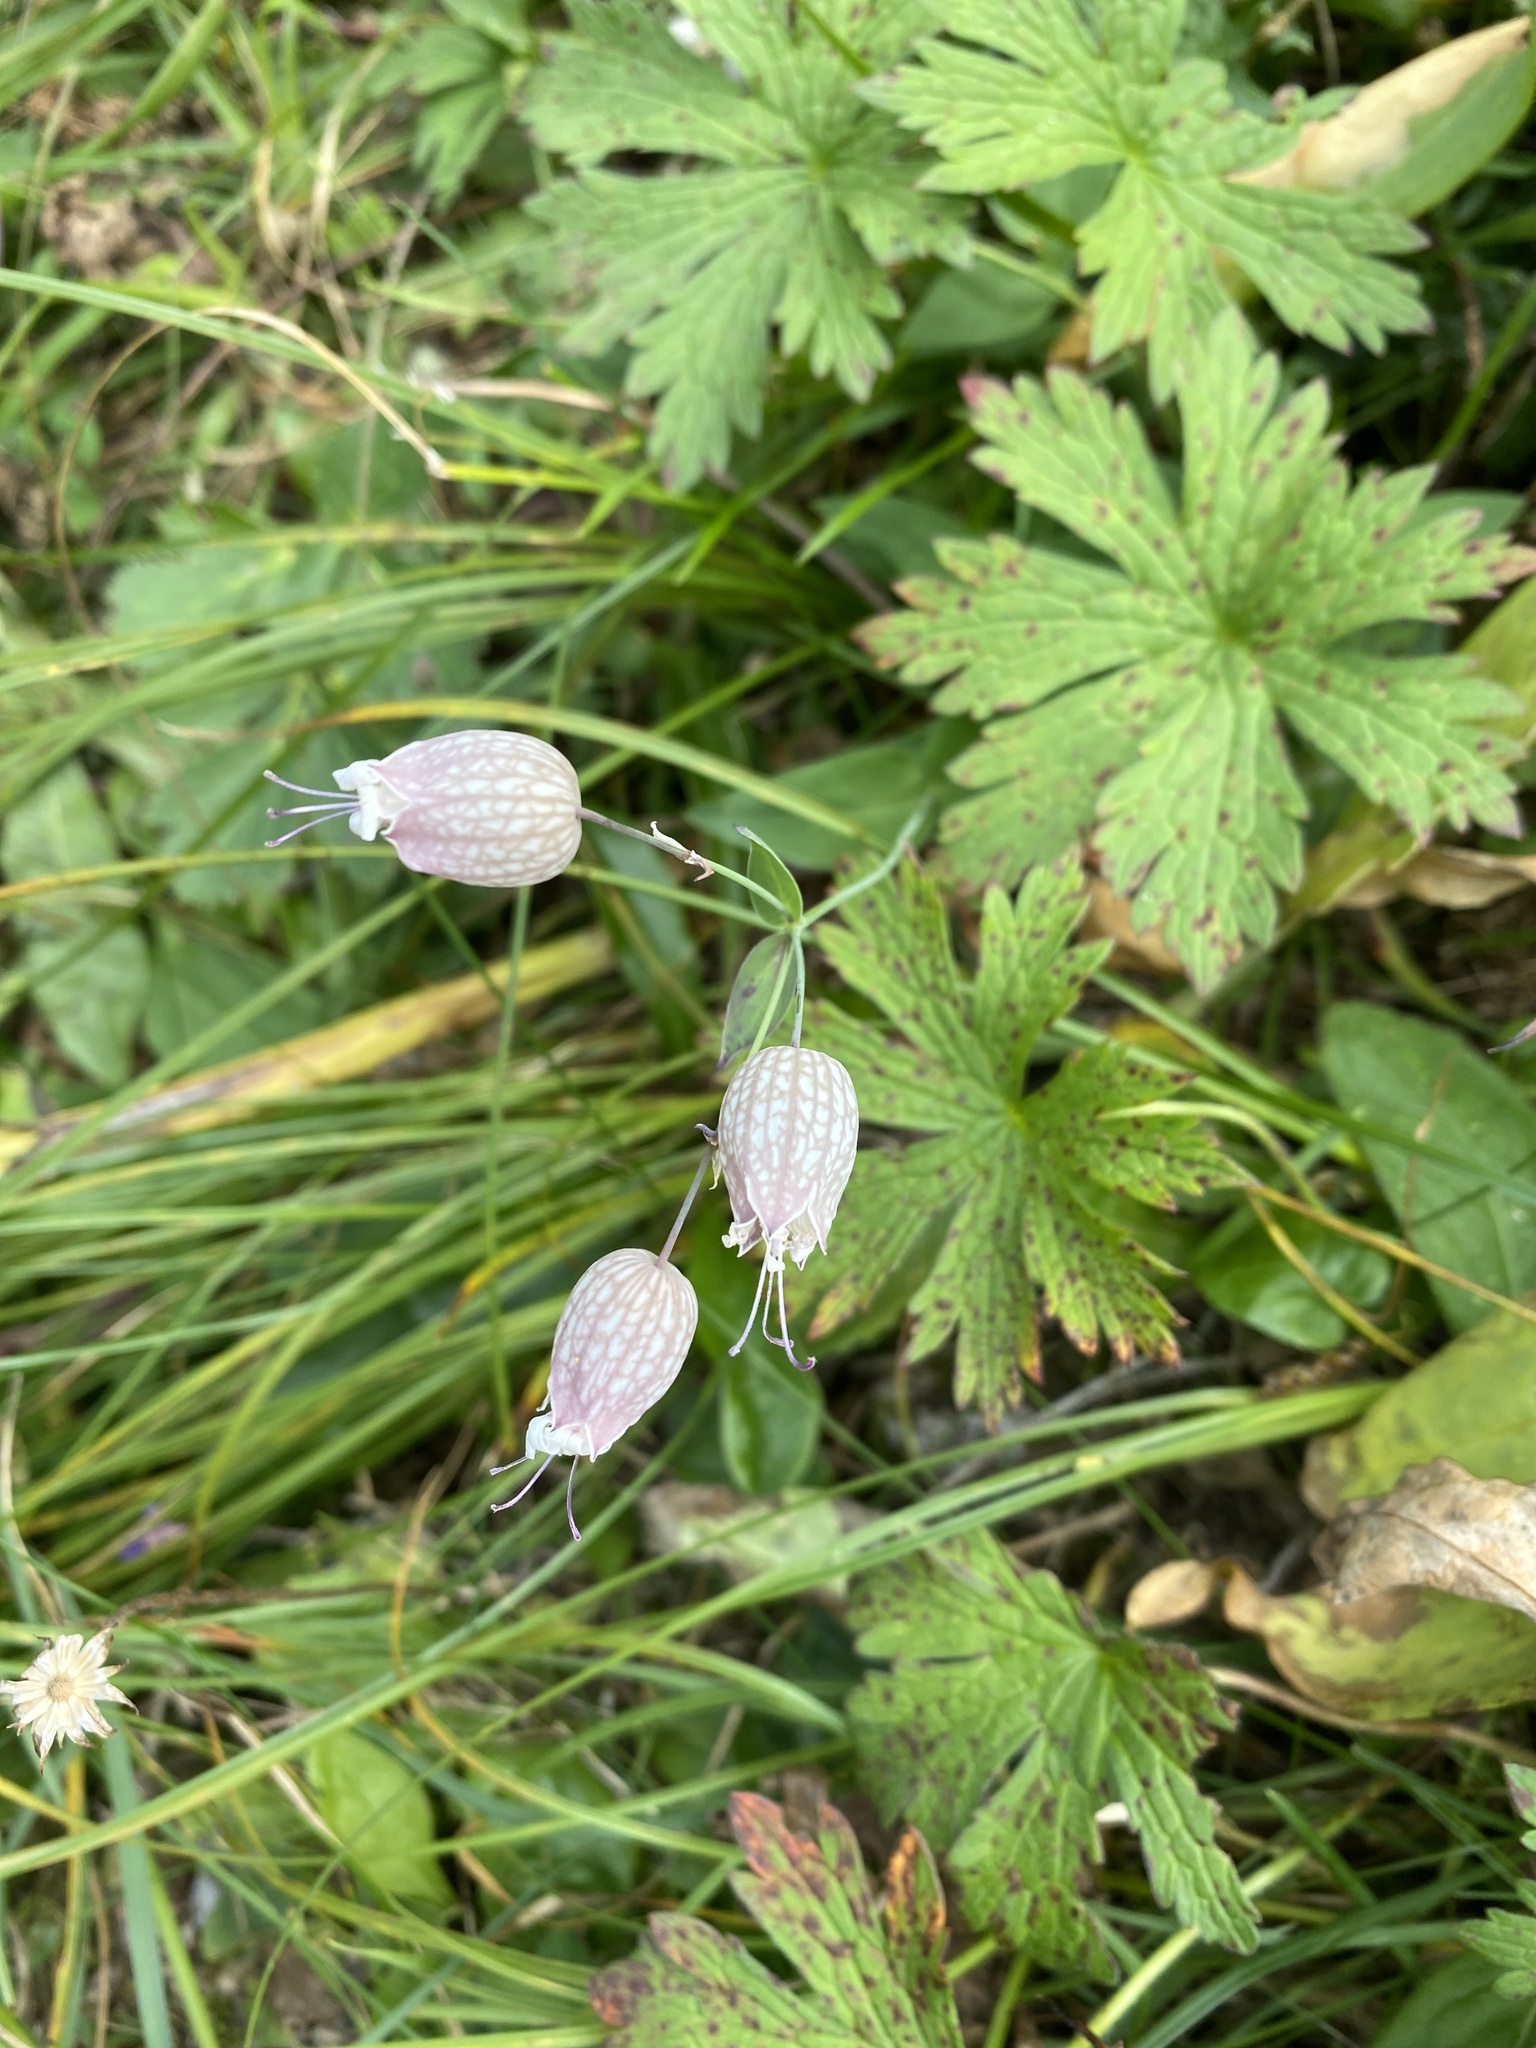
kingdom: Plantae
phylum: Tracheophyta
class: Magnoliopsida
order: Caryophyllales
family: Caryophyllaceae
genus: Silene
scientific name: Silene vulgaris
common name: Bladder campion
